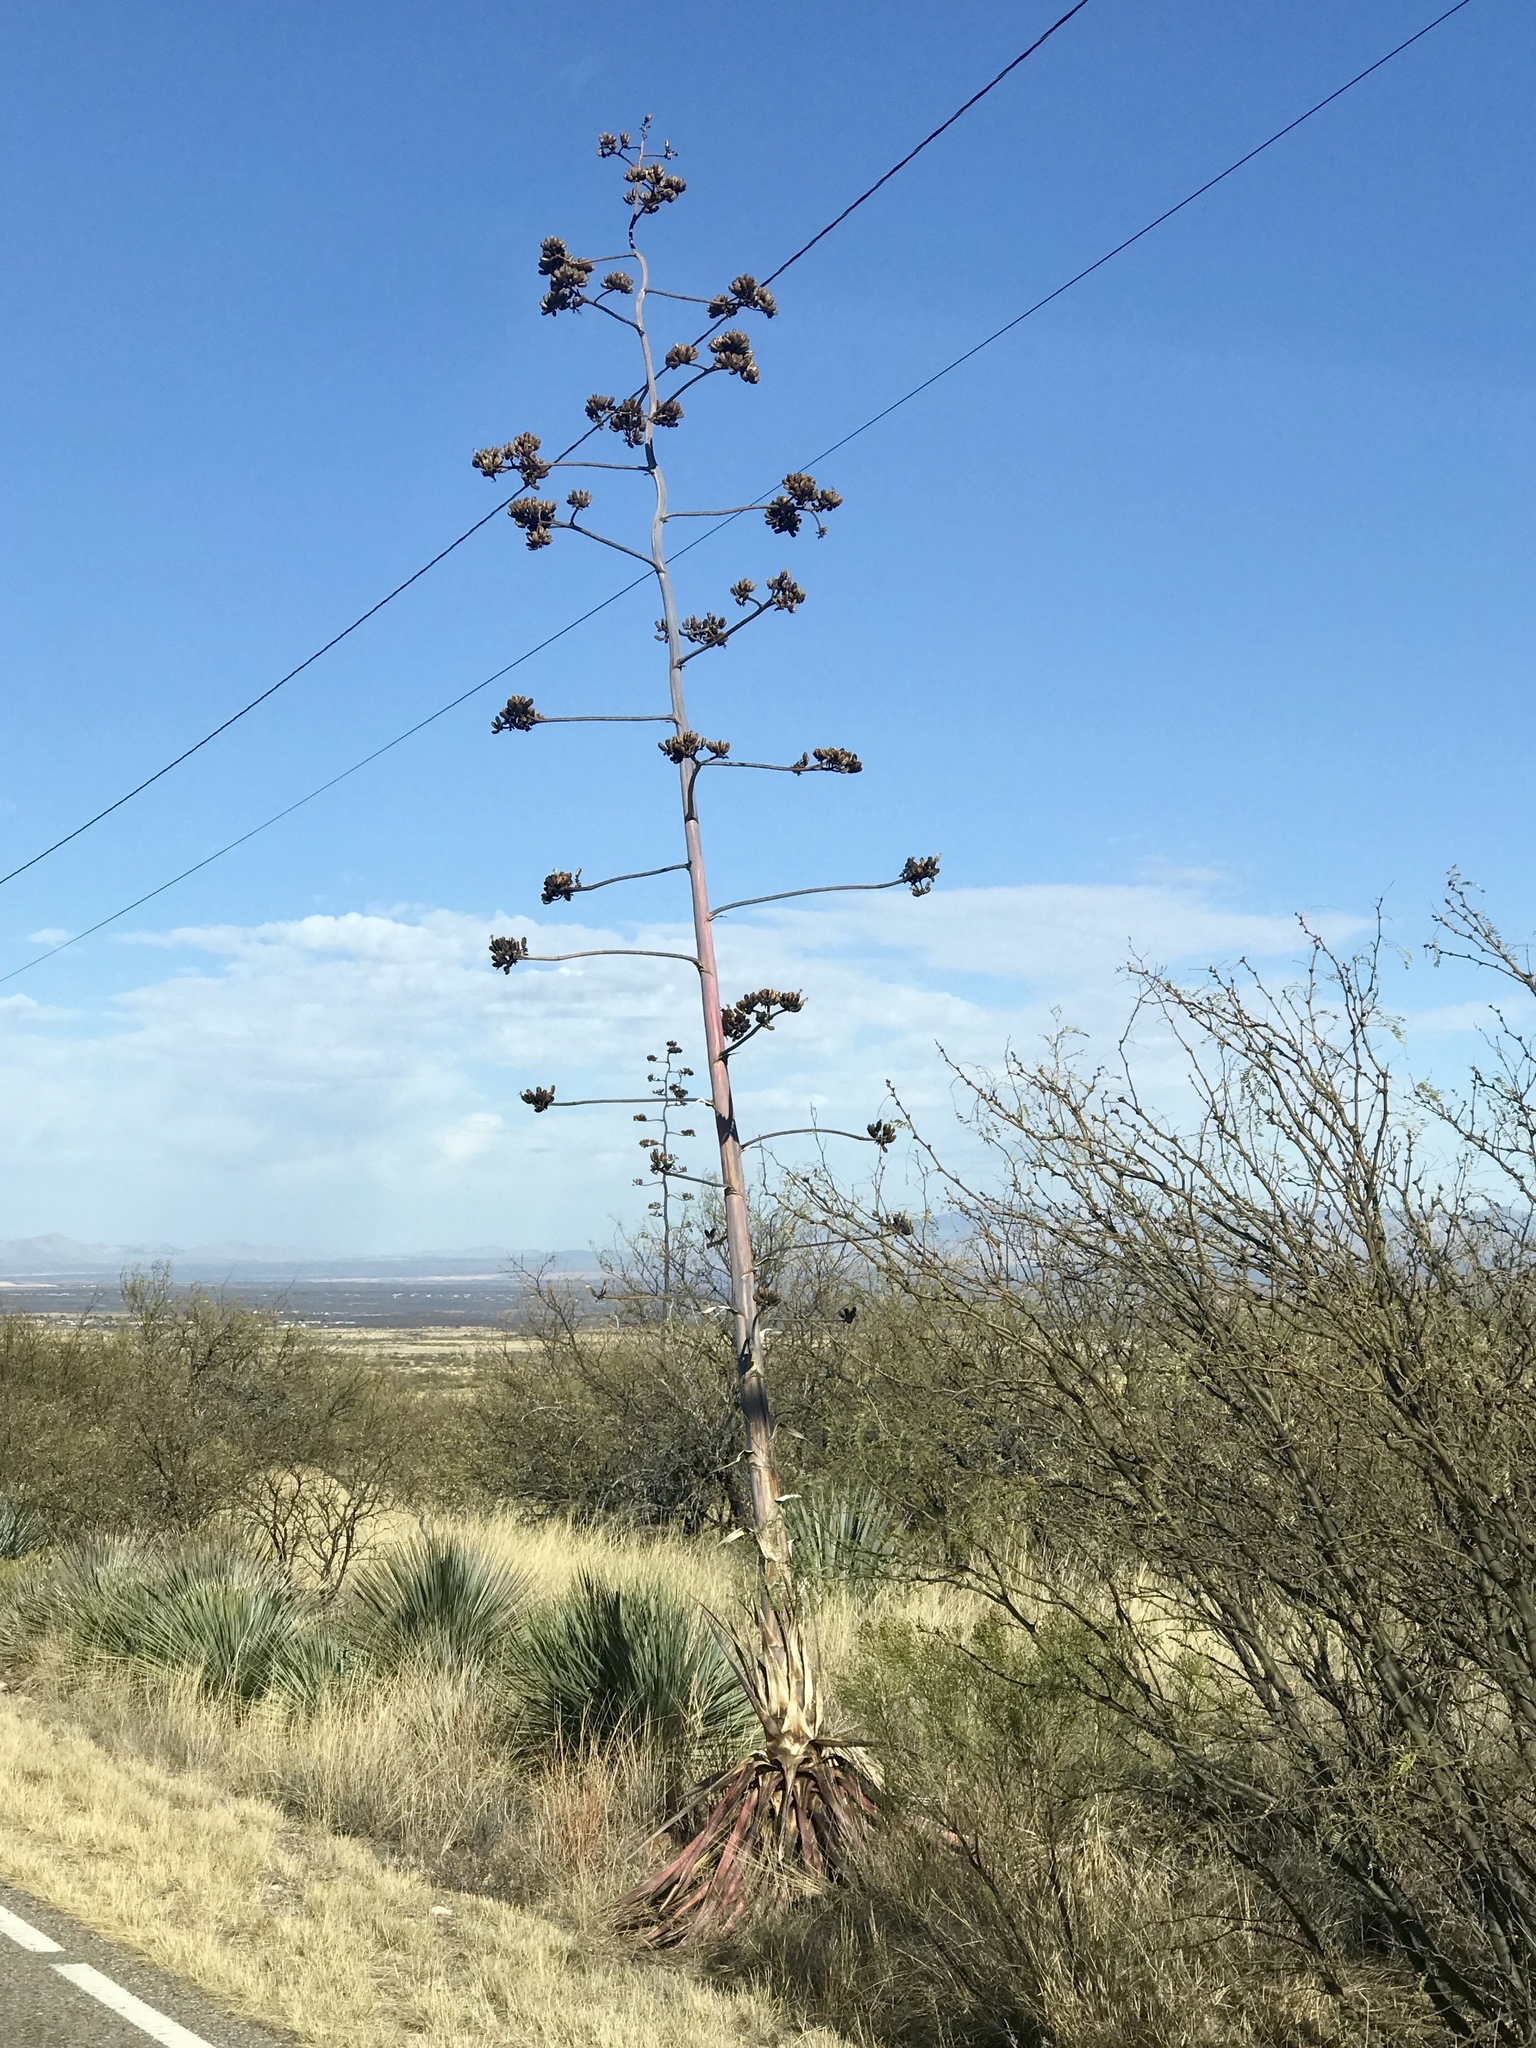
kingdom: Plantae
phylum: Tracheophyta
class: Liliopsida
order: Asparagales
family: Asparagaceae
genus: Agave
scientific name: Agave palmeri
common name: Palmer agave
